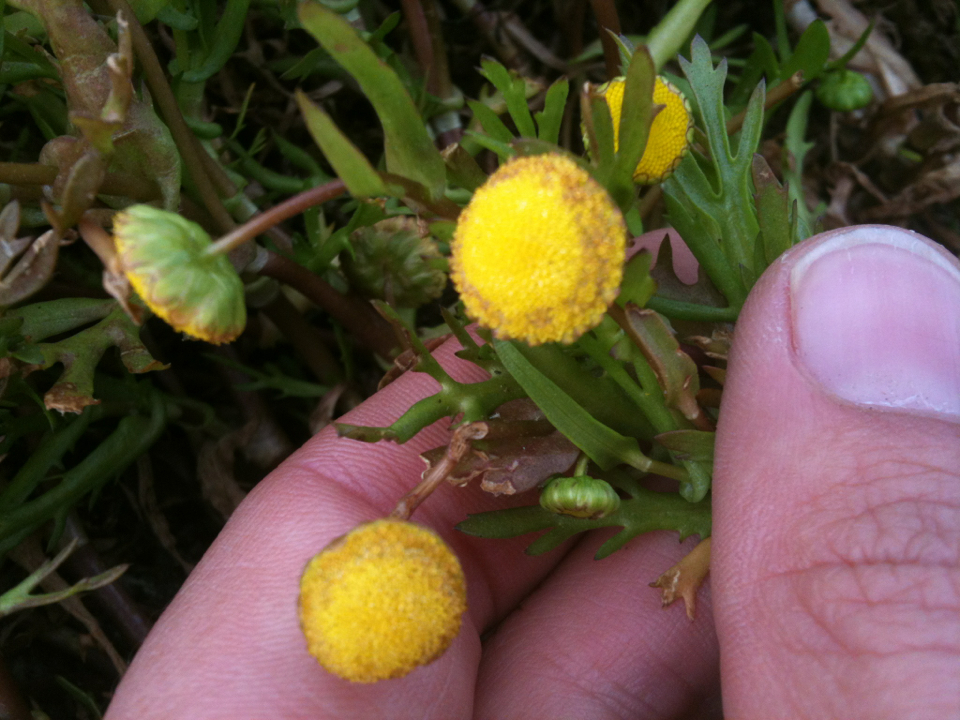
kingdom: Plantae
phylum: Tracheophyta
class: Magnoliopsida
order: Asterales
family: Asteraceae
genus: Cotula
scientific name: Cotula coronopifolia
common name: Buttonweed
